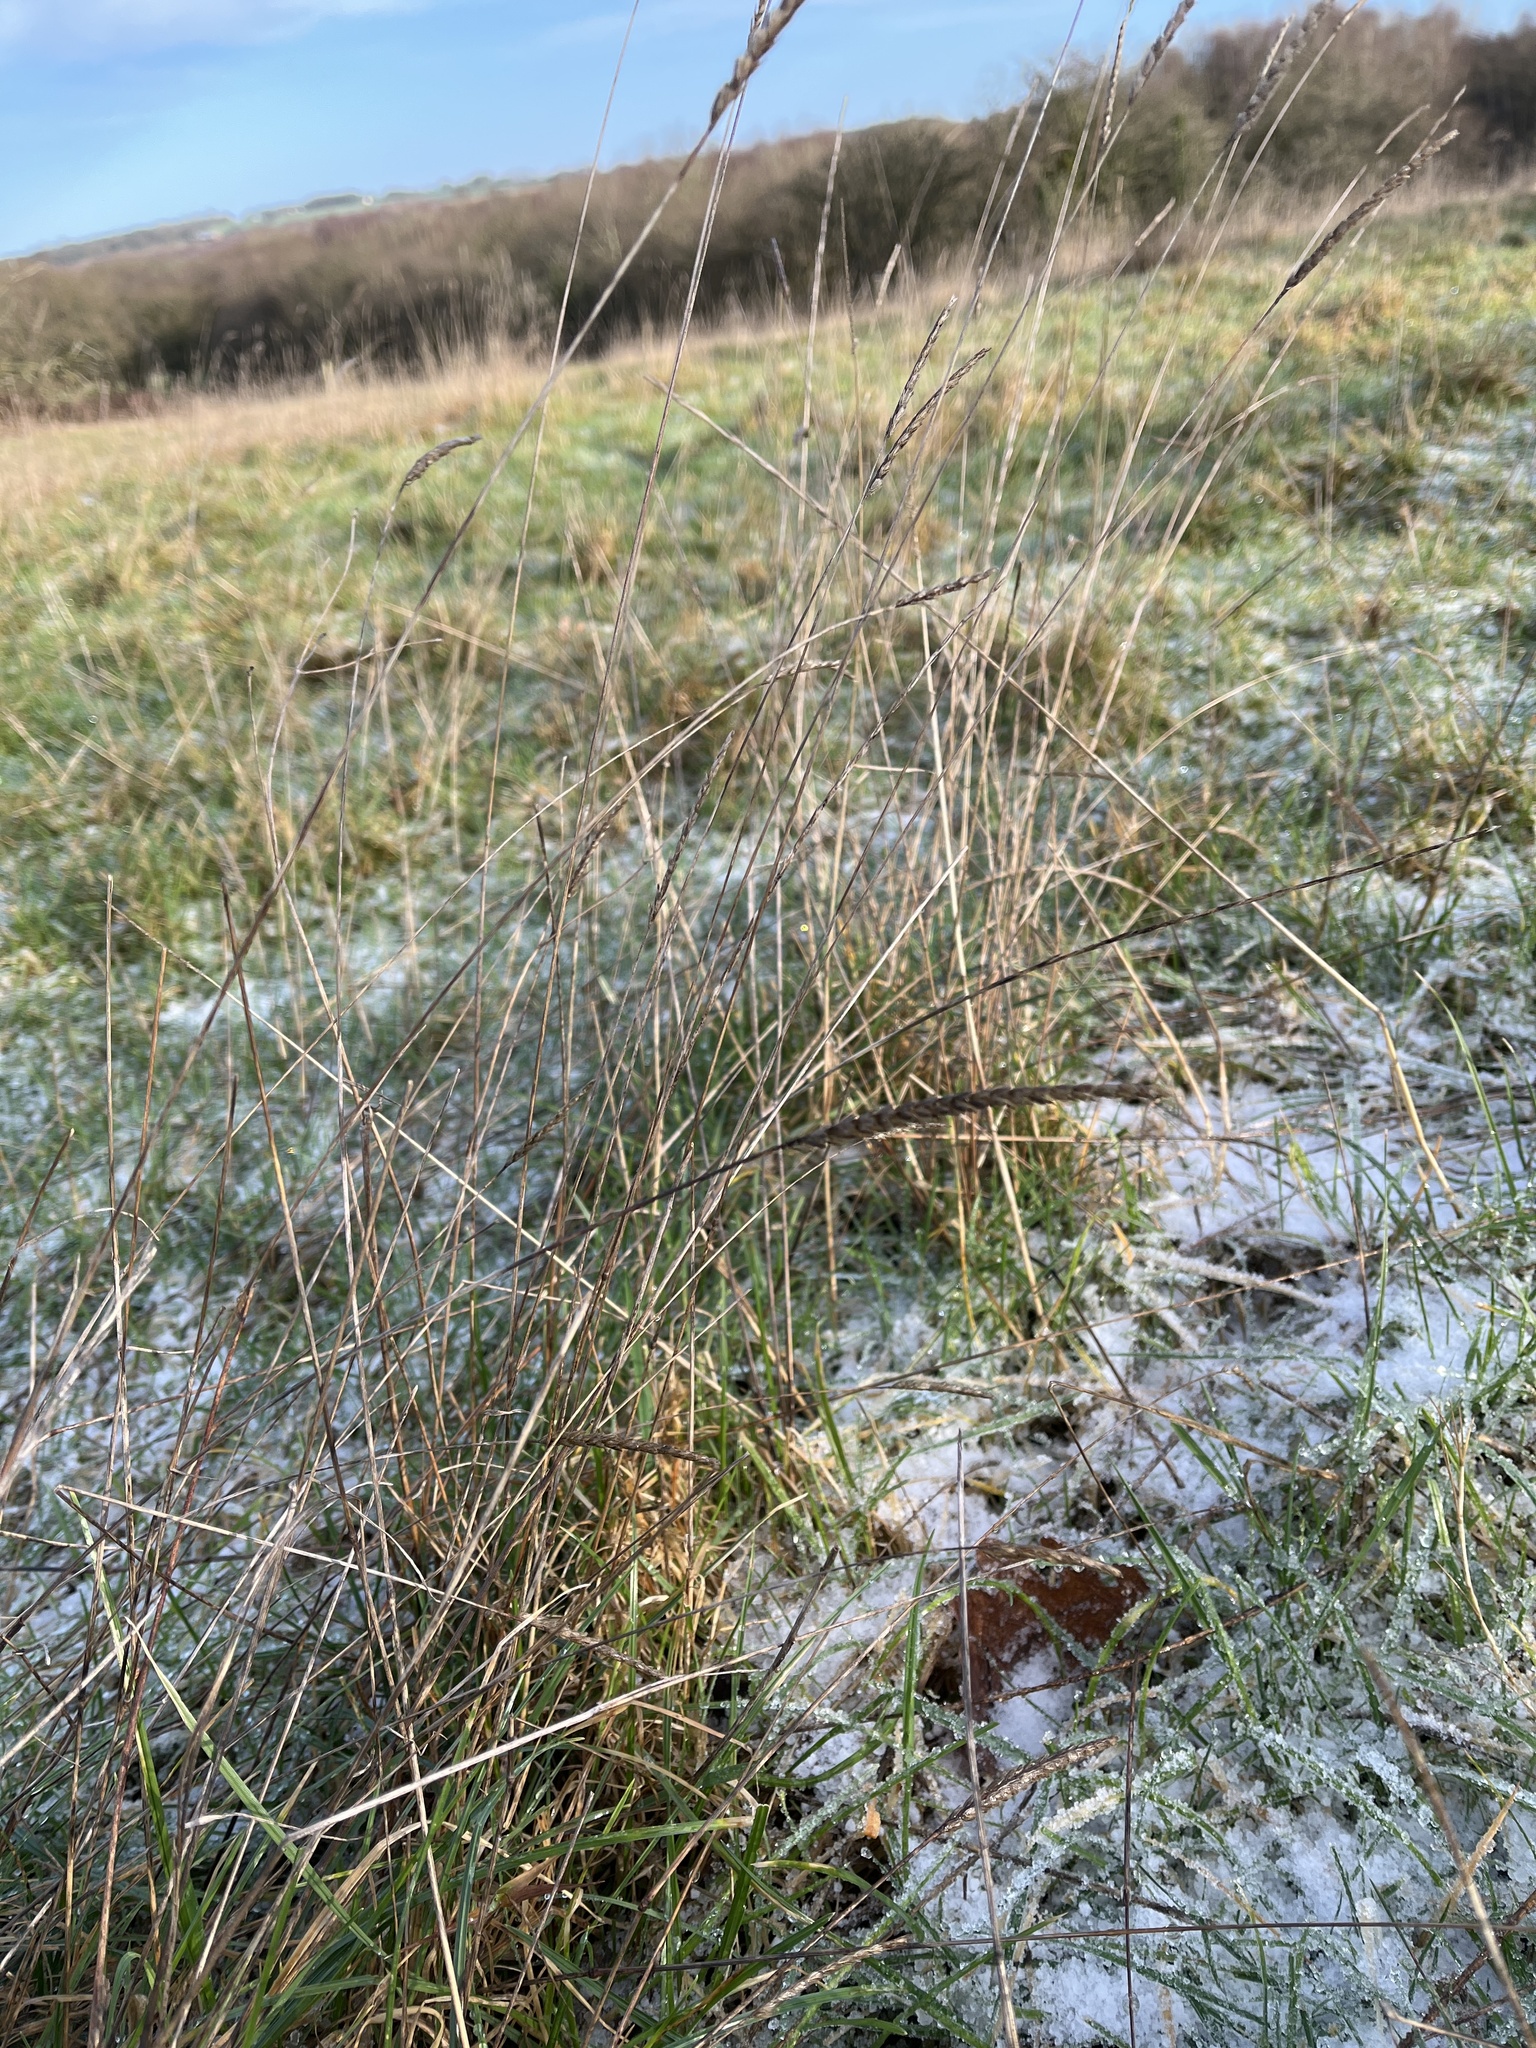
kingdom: Plantae
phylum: Tracheophyta
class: Liliopsida
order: Poales
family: Poaceae
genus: Cynosurus
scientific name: Cynosurus cristatus
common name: Crested dog's-tail
